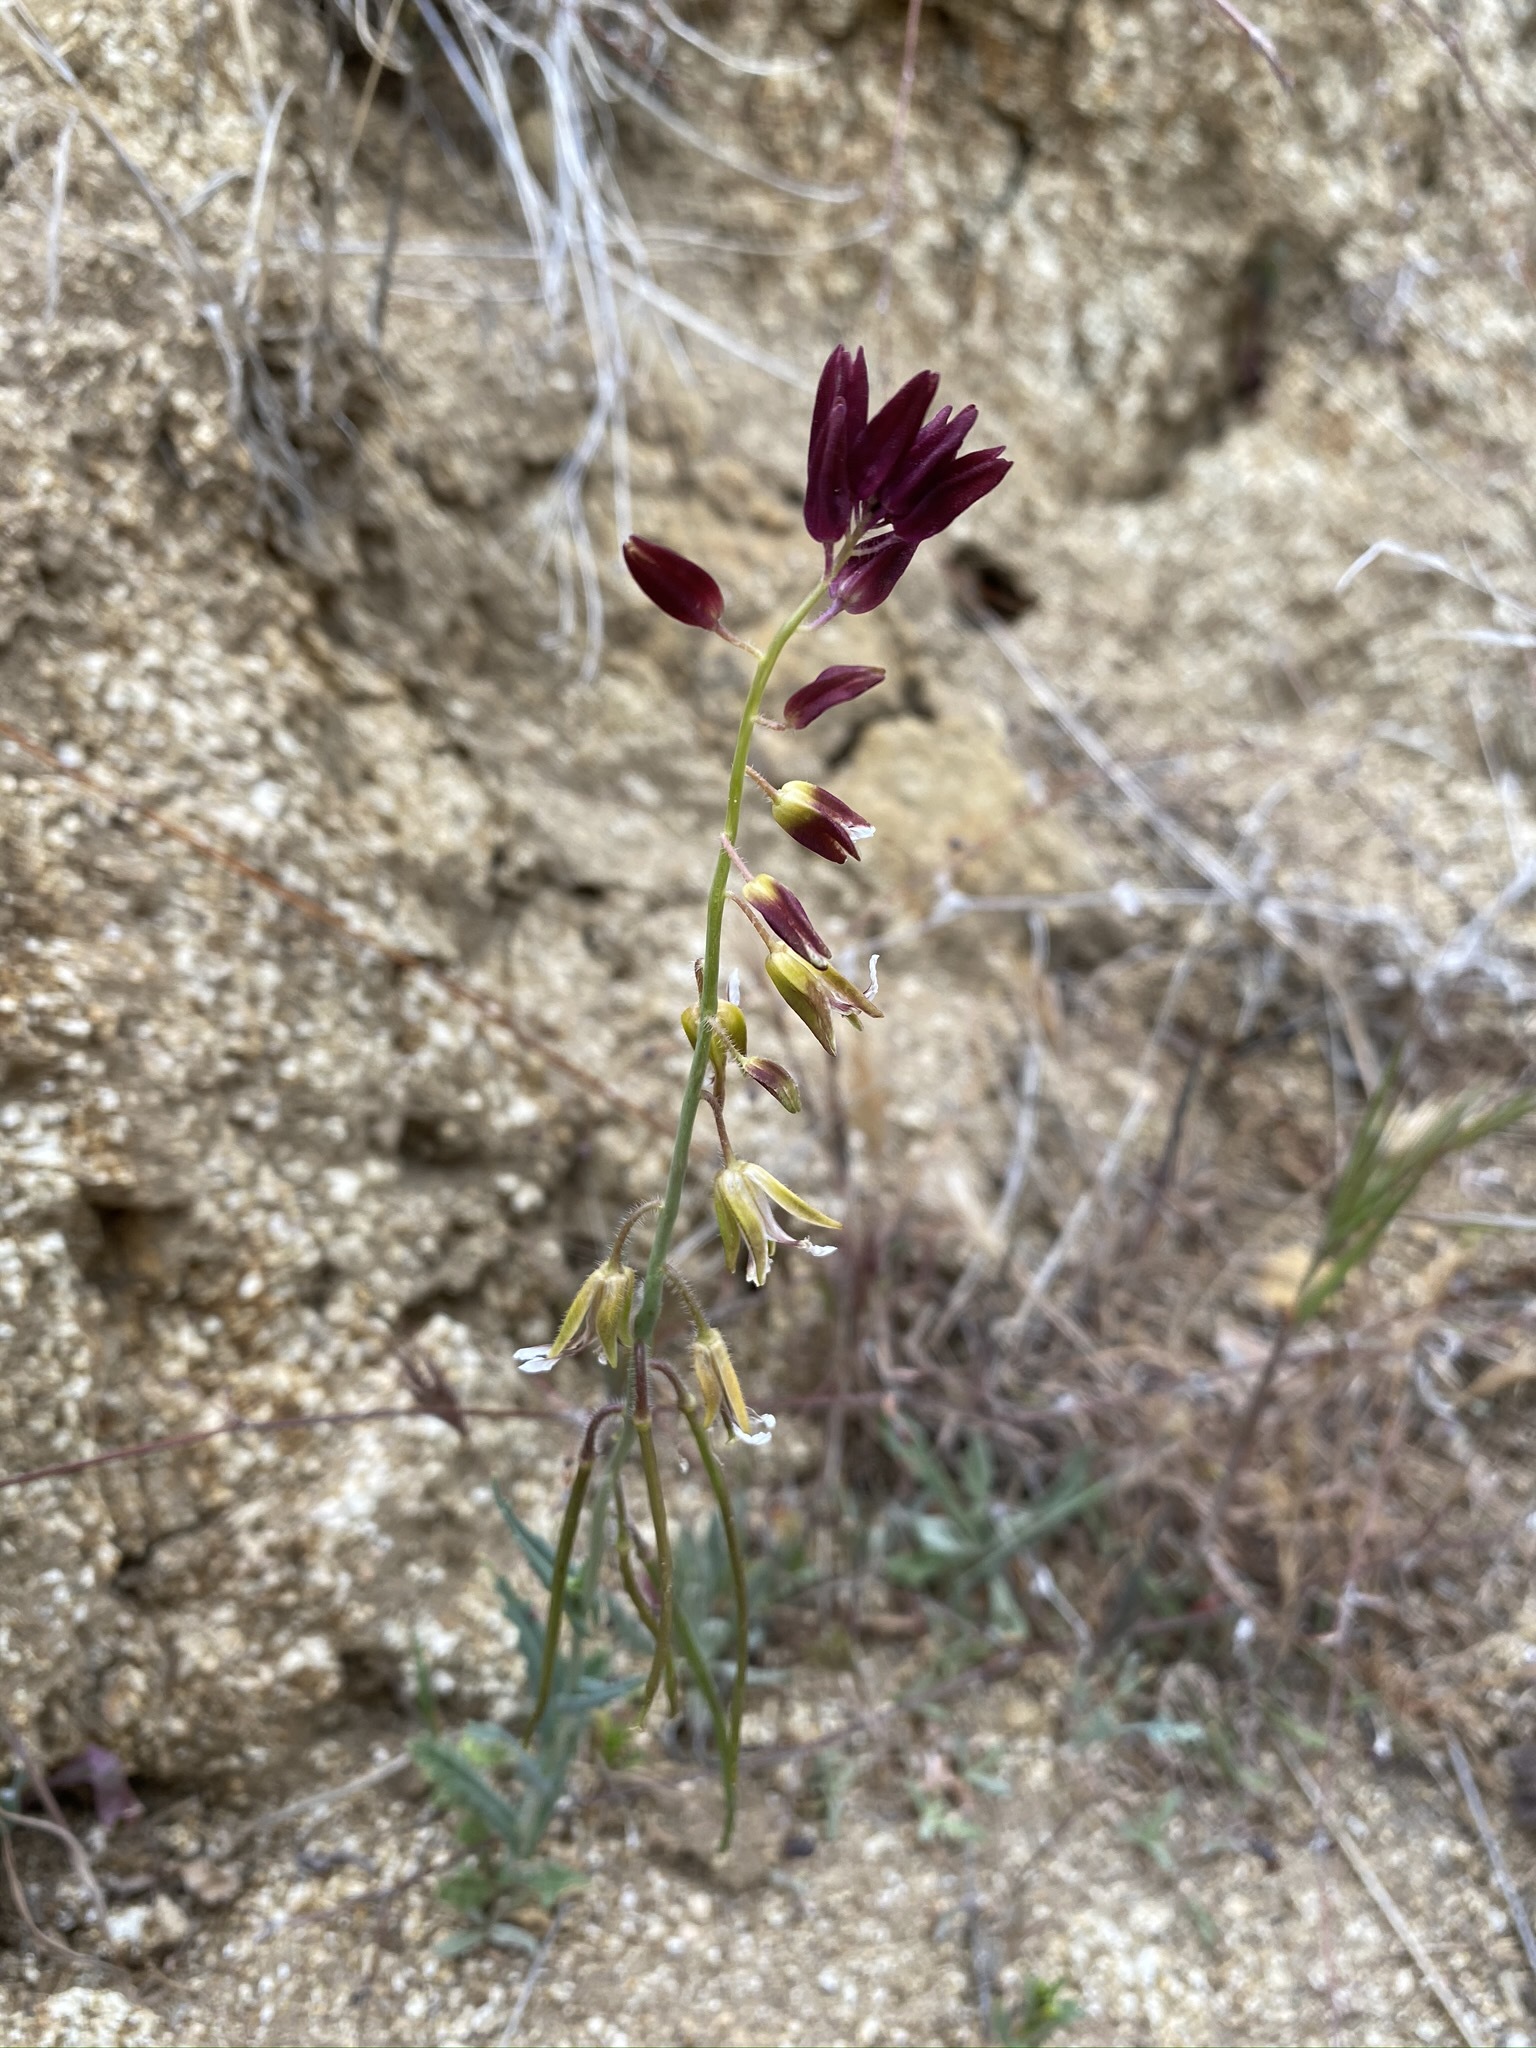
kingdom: Plantae
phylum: Tracheophyta
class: Magnoliopsida
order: Brassicales
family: Brassicaceae
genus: Streptanthus
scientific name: Streptanthus coulteri
